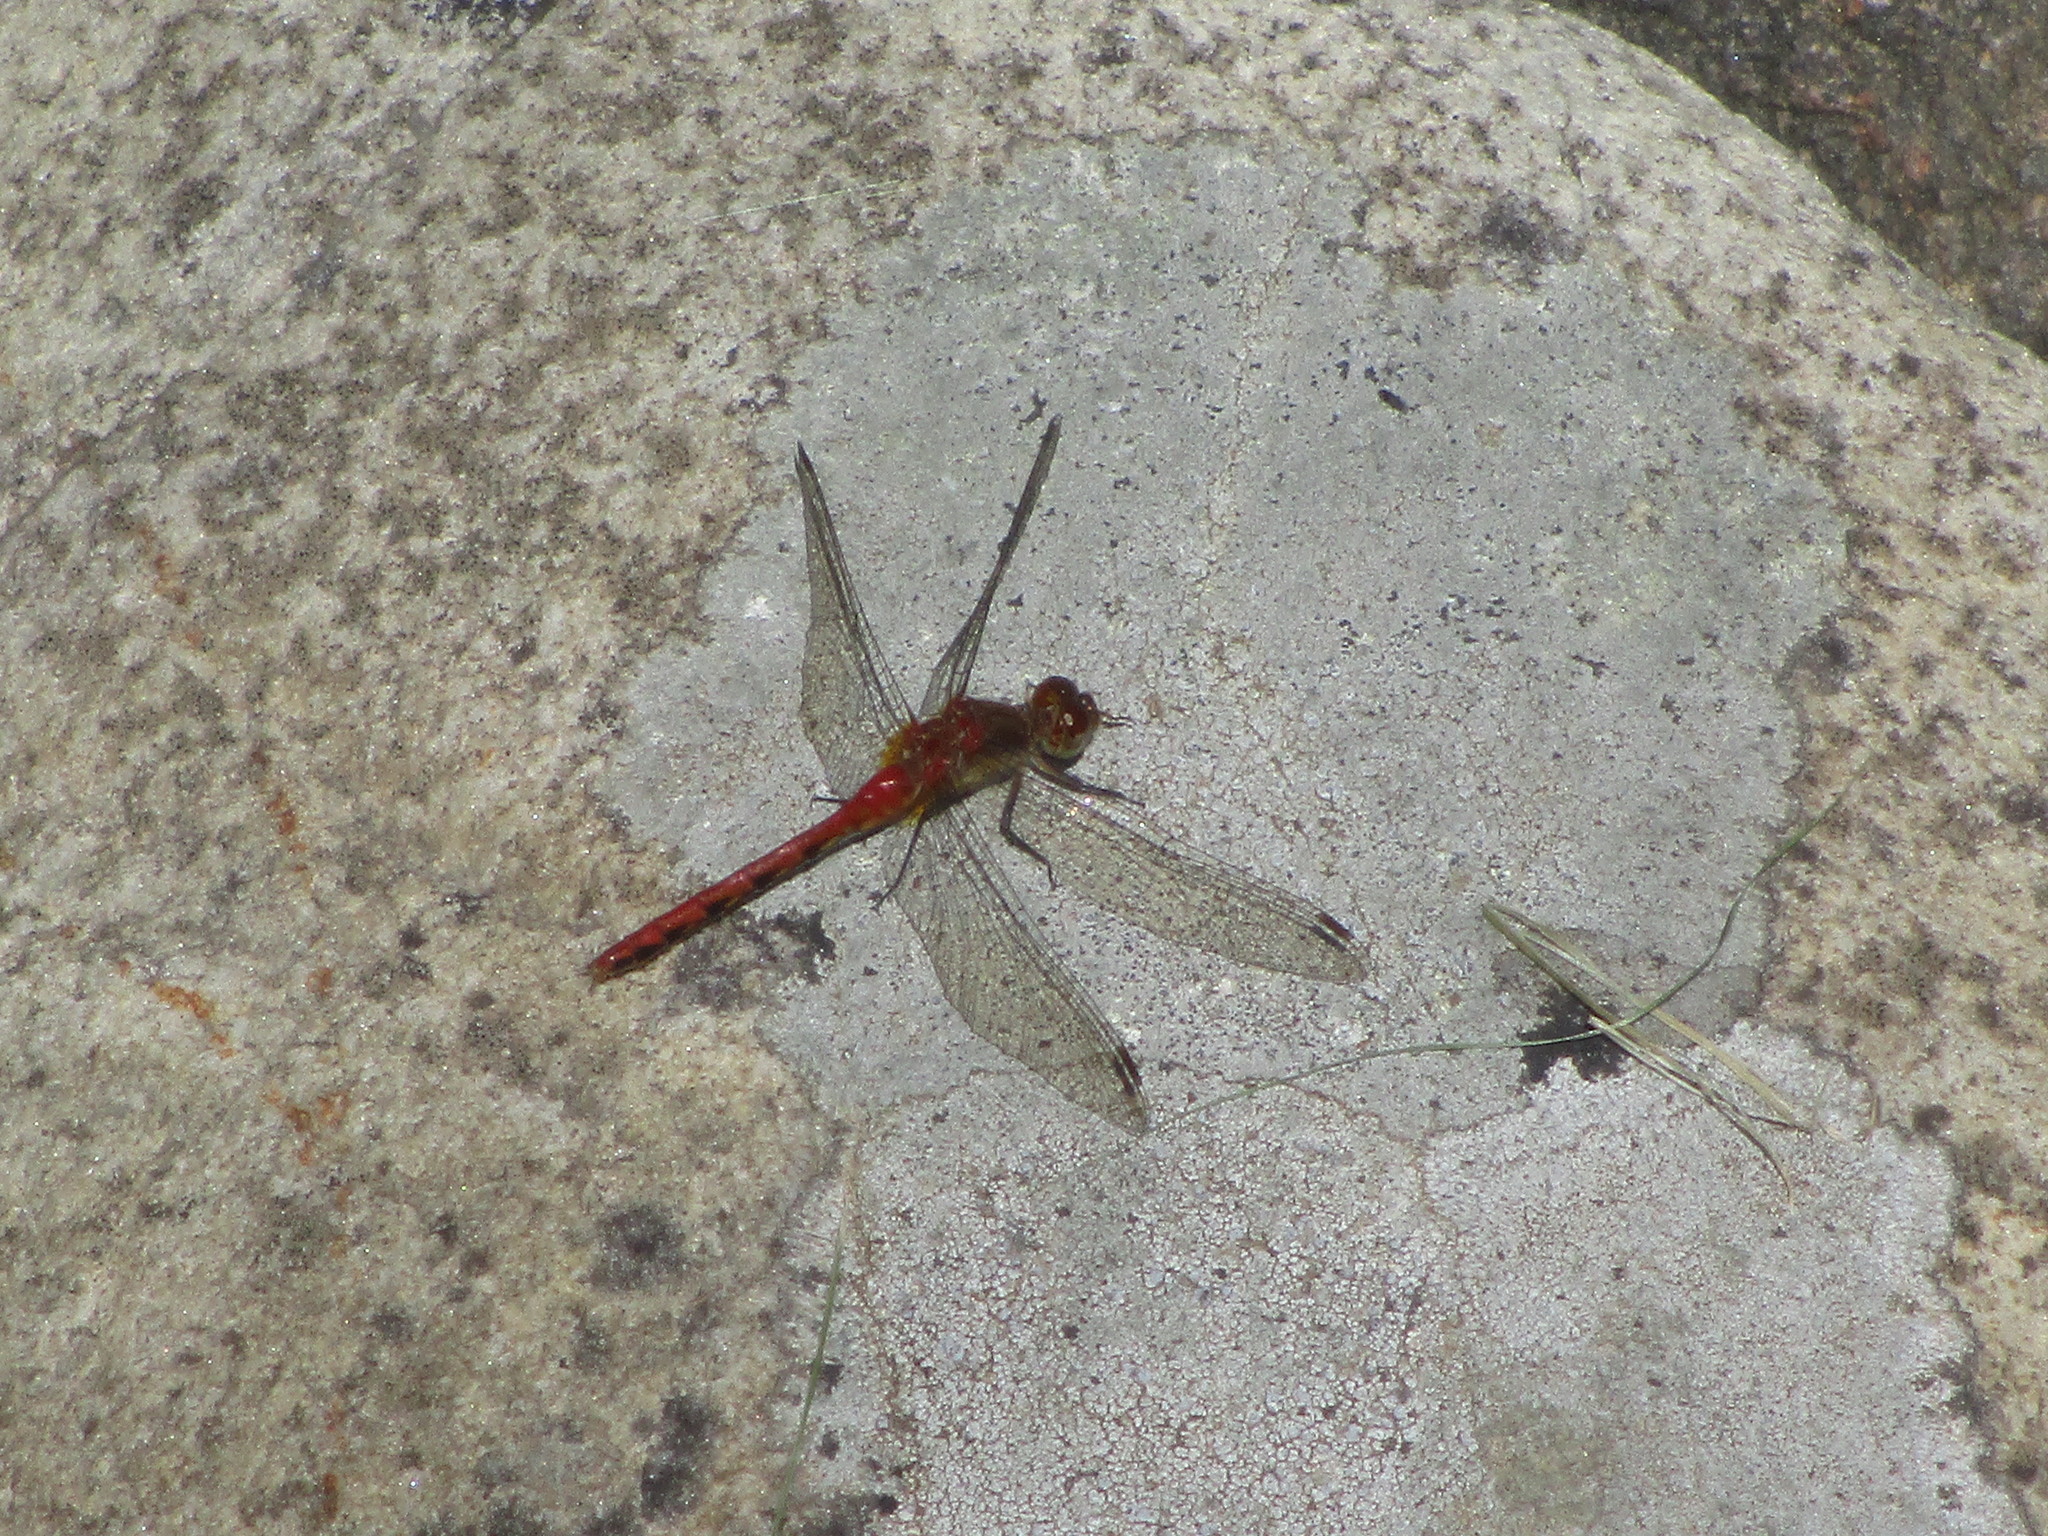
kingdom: Animalia
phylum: Arthropoda
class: Insecta
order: Odonata
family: Libellulidae
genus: Sympetrum
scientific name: Sympetrum vicinum
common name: Autumn meadowhawk
